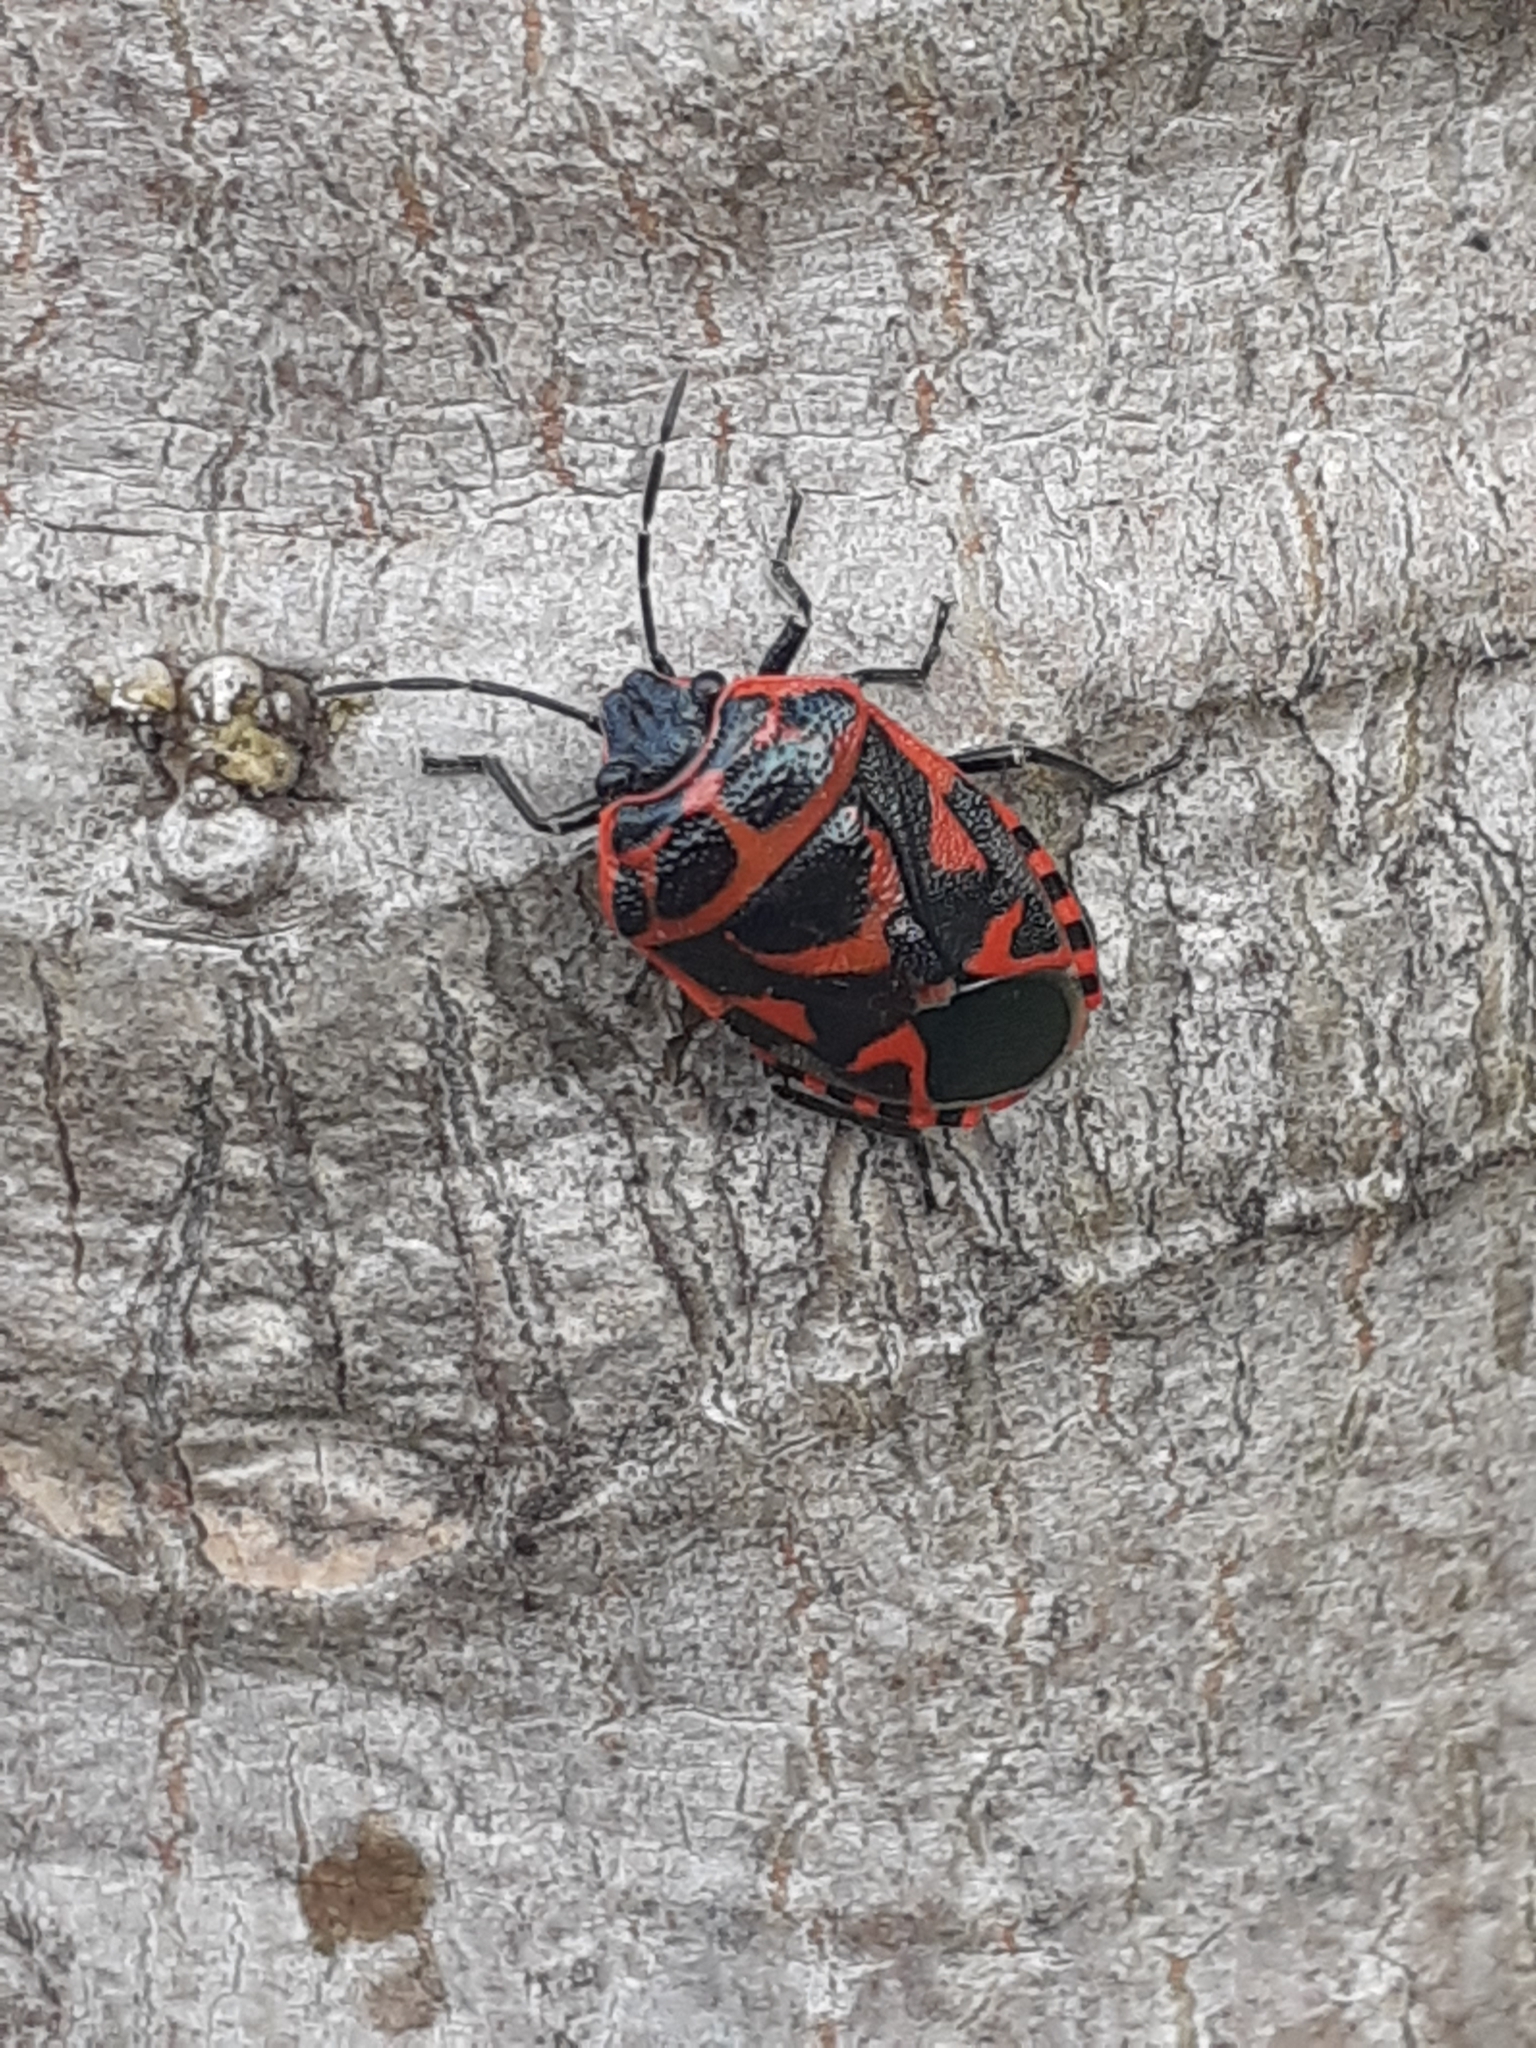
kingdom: Animalia
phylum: Arthropoda
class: Insecta
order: Hemiptera
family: Pentatomidae
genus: Eurydema
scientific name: Eurydema ornata
